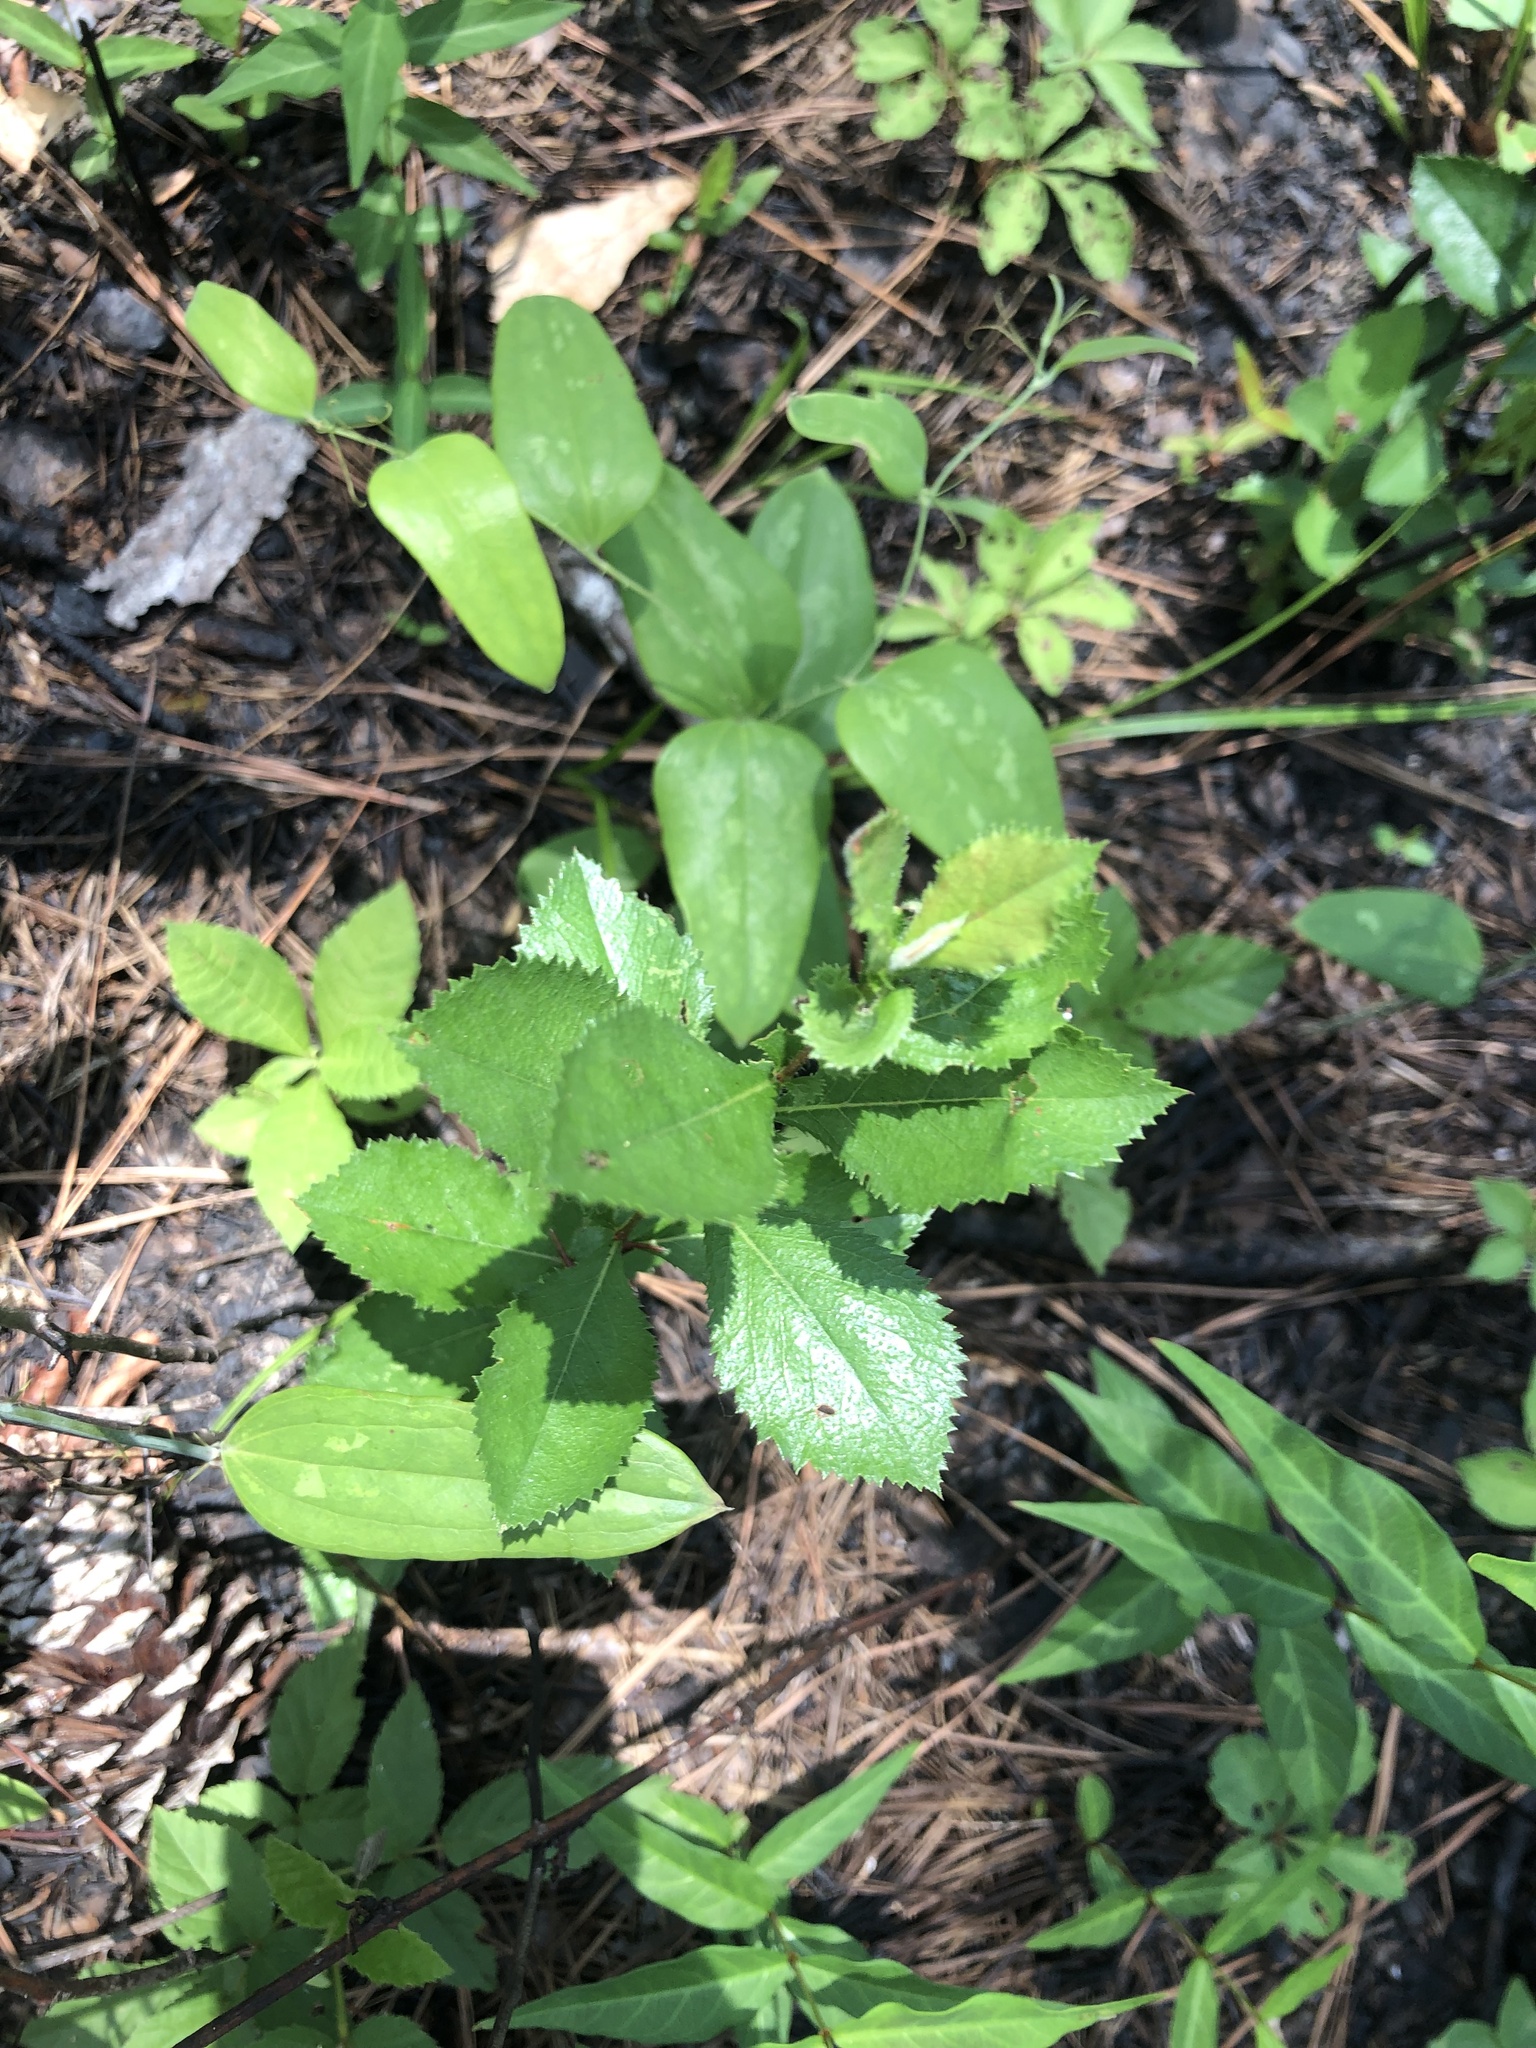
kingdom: Plantae
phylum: Tracheophyta
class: Magnoliopsida
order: Rosales
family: Rosaceae
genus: Crataegus
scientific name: Crataegus berberifolia
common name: Barberry hawthorn
